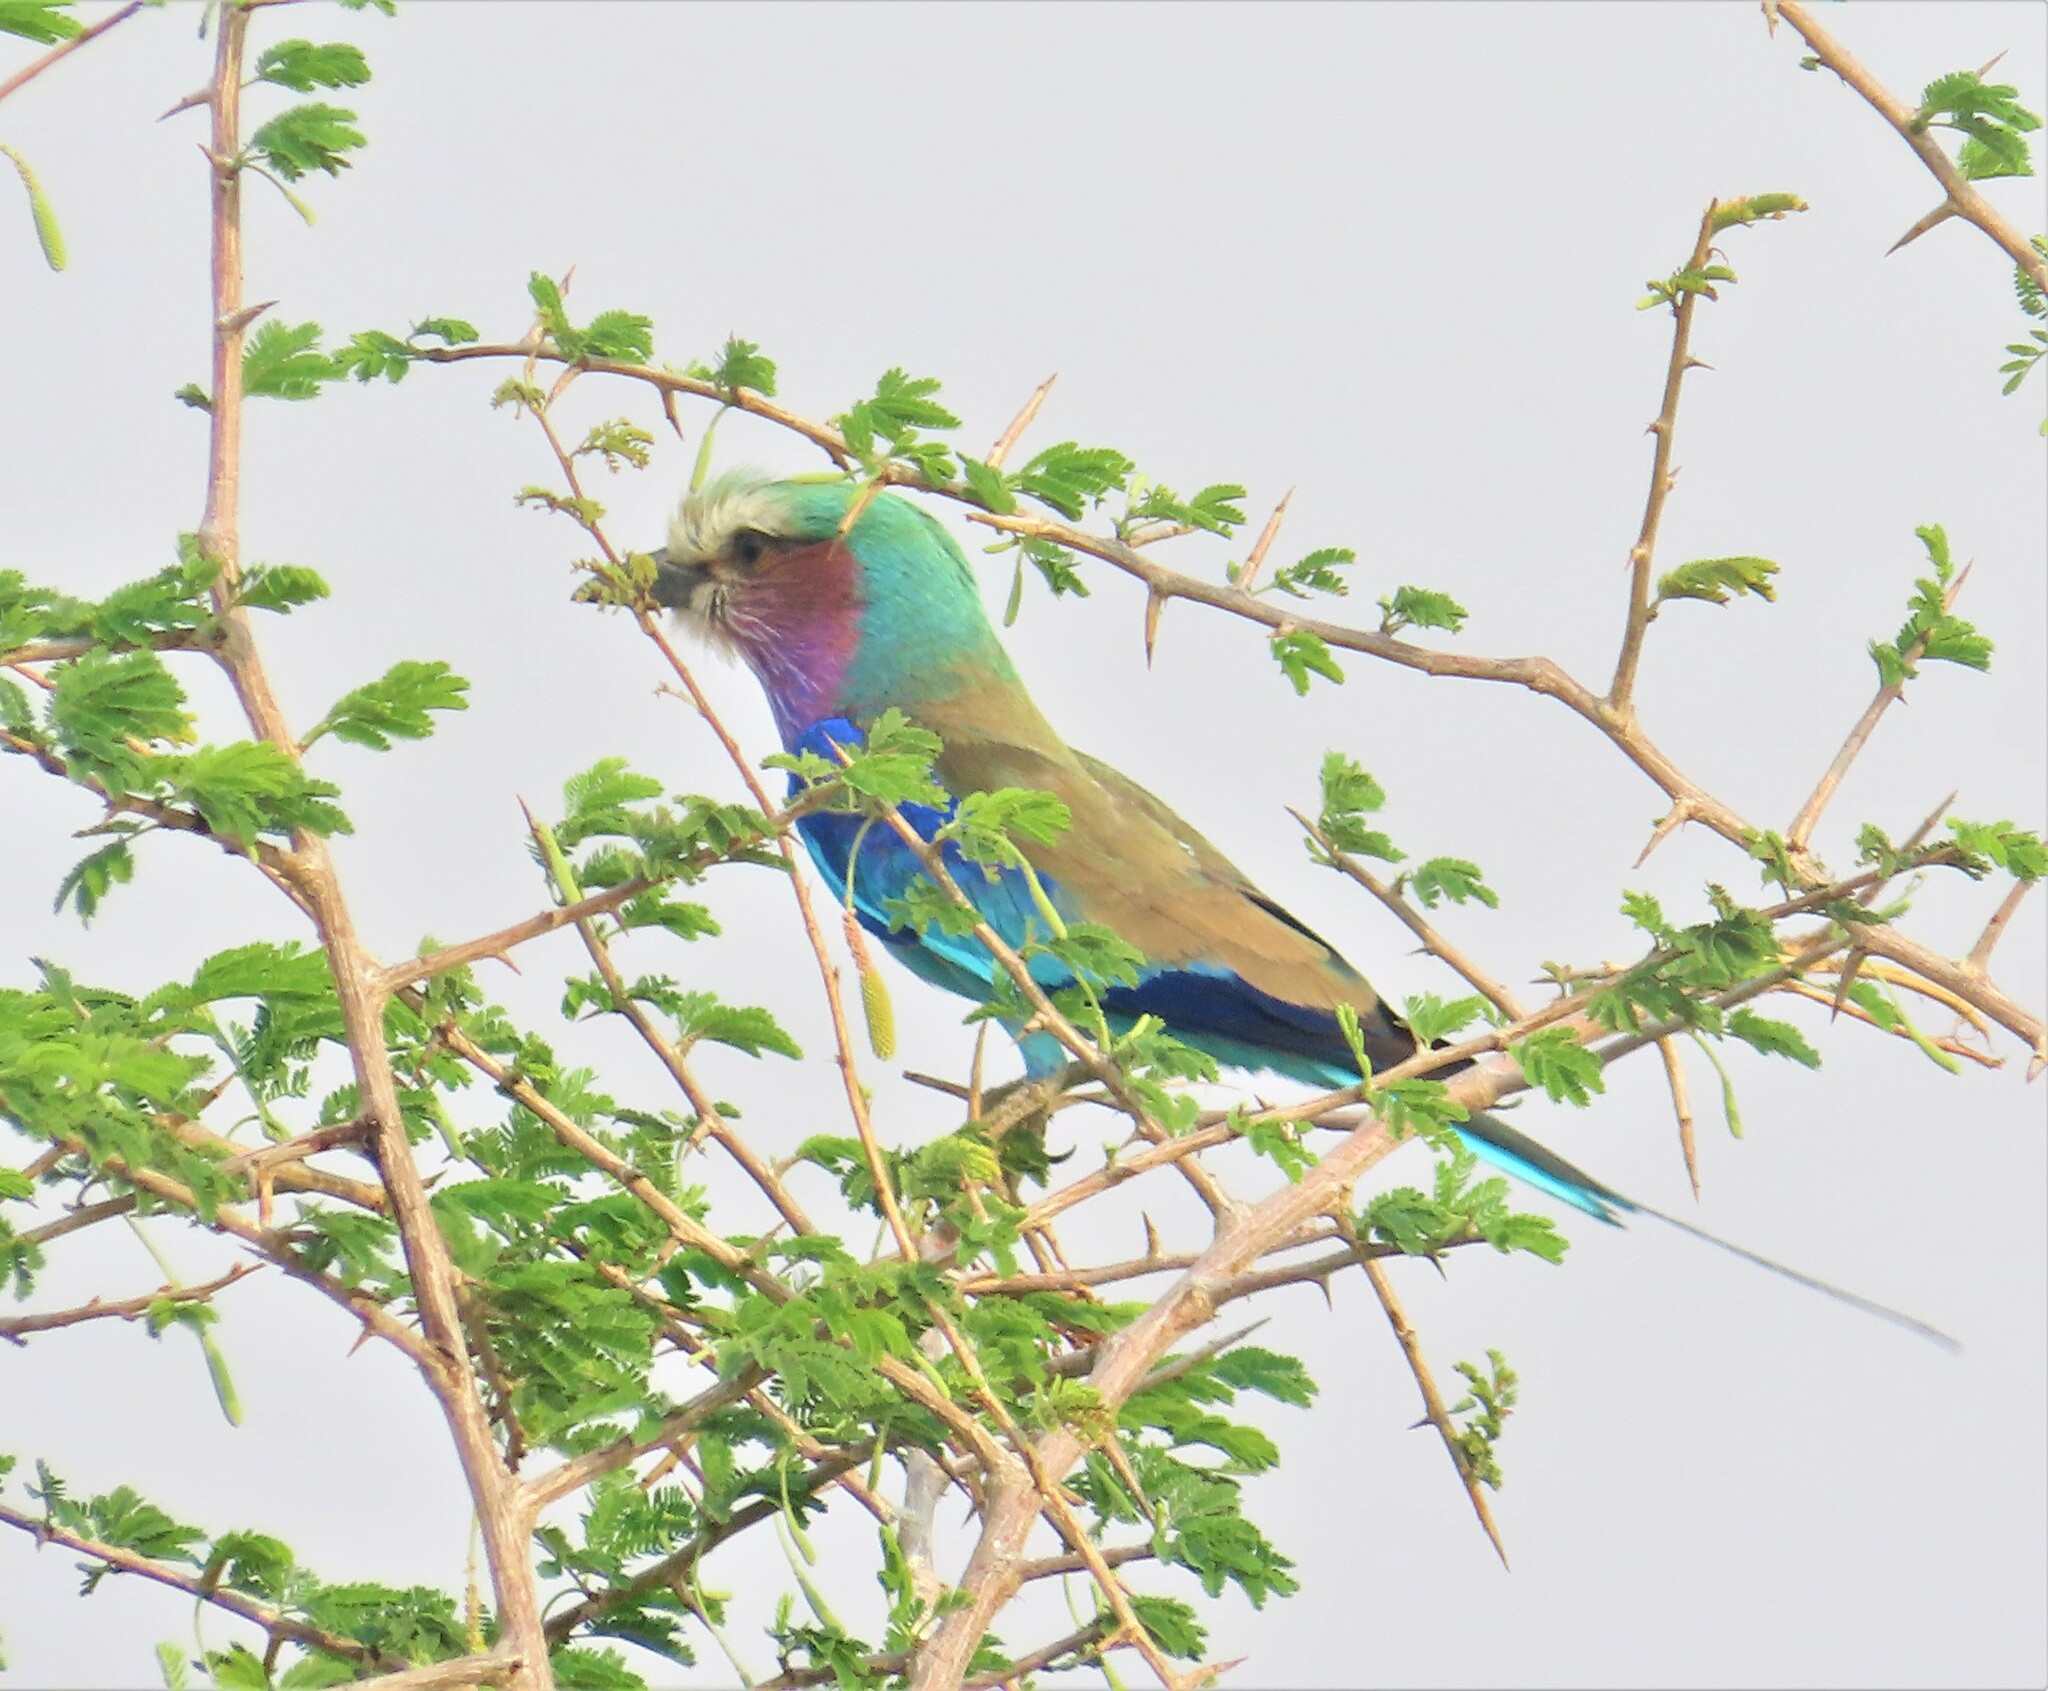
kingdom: Animalia
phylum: Chordata
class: Aves
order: Coraciiformes
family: Coraciidae
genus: Coracias
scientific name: Coracias caudatus
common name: Lilac-breasted roller
